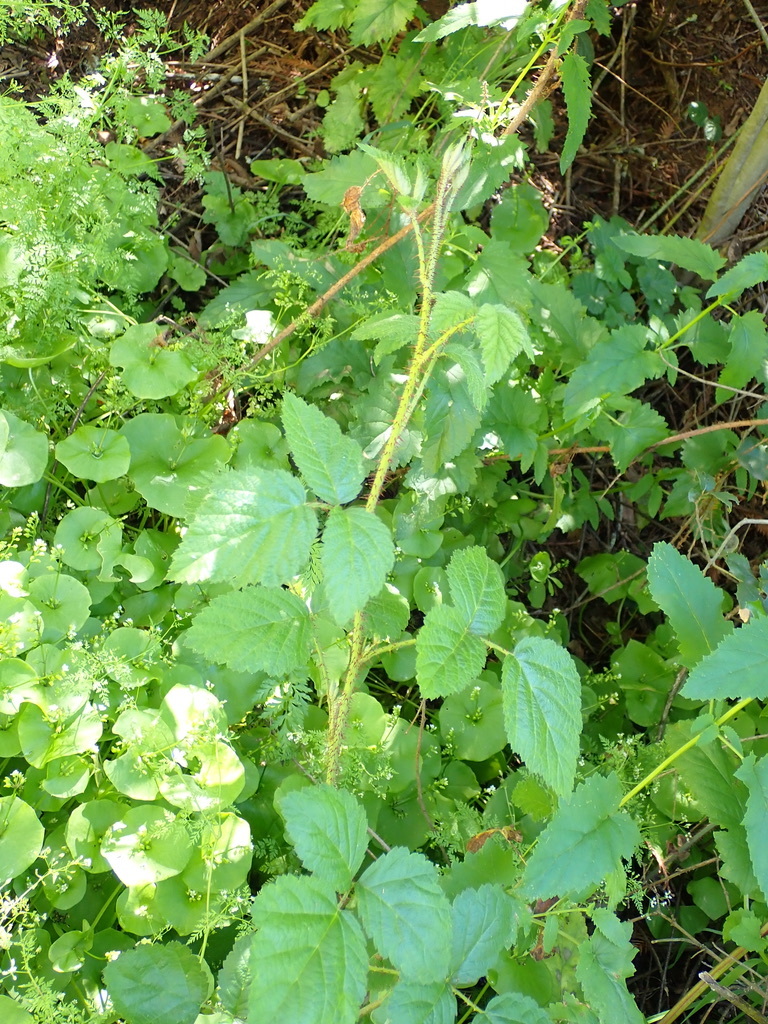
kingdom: Plantae
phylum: Tracheophyta
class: Magnoliopsida
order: Rosales
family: Rosaceae
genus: Rubus
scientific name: Rubus ursinus
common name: Pacific blackberry
